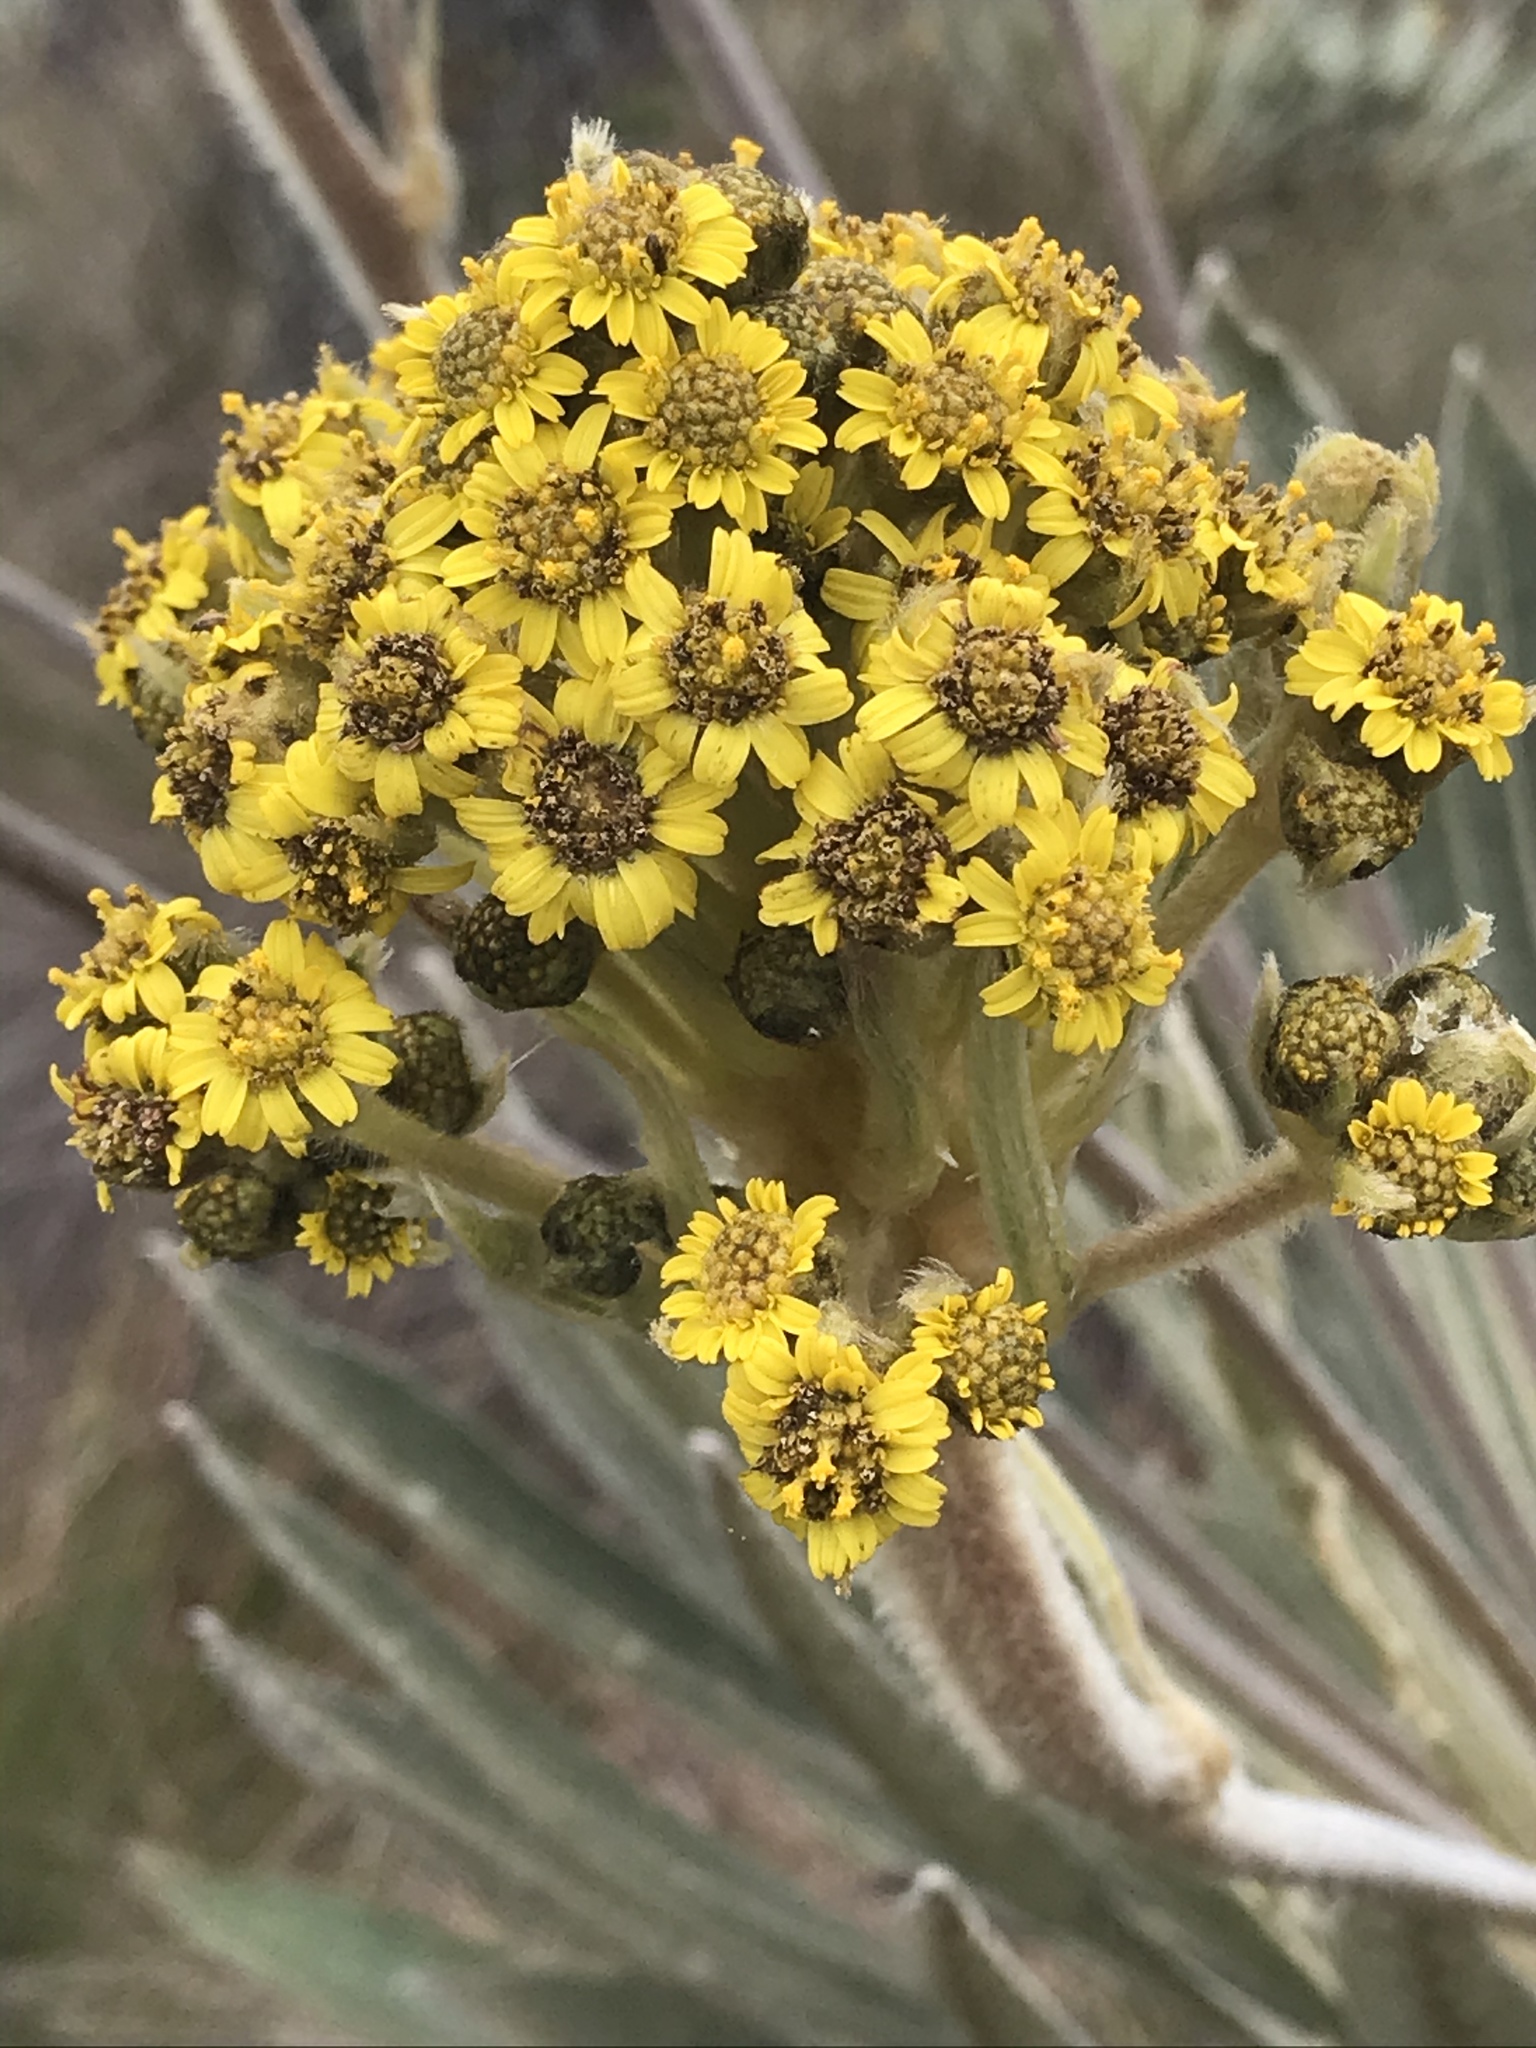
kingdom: Plantae
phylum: Tracheophyta
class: Magnoliopsida
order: Asterales
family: Asteraceae
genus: Espeletia
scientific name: Espeletia corymbosa
